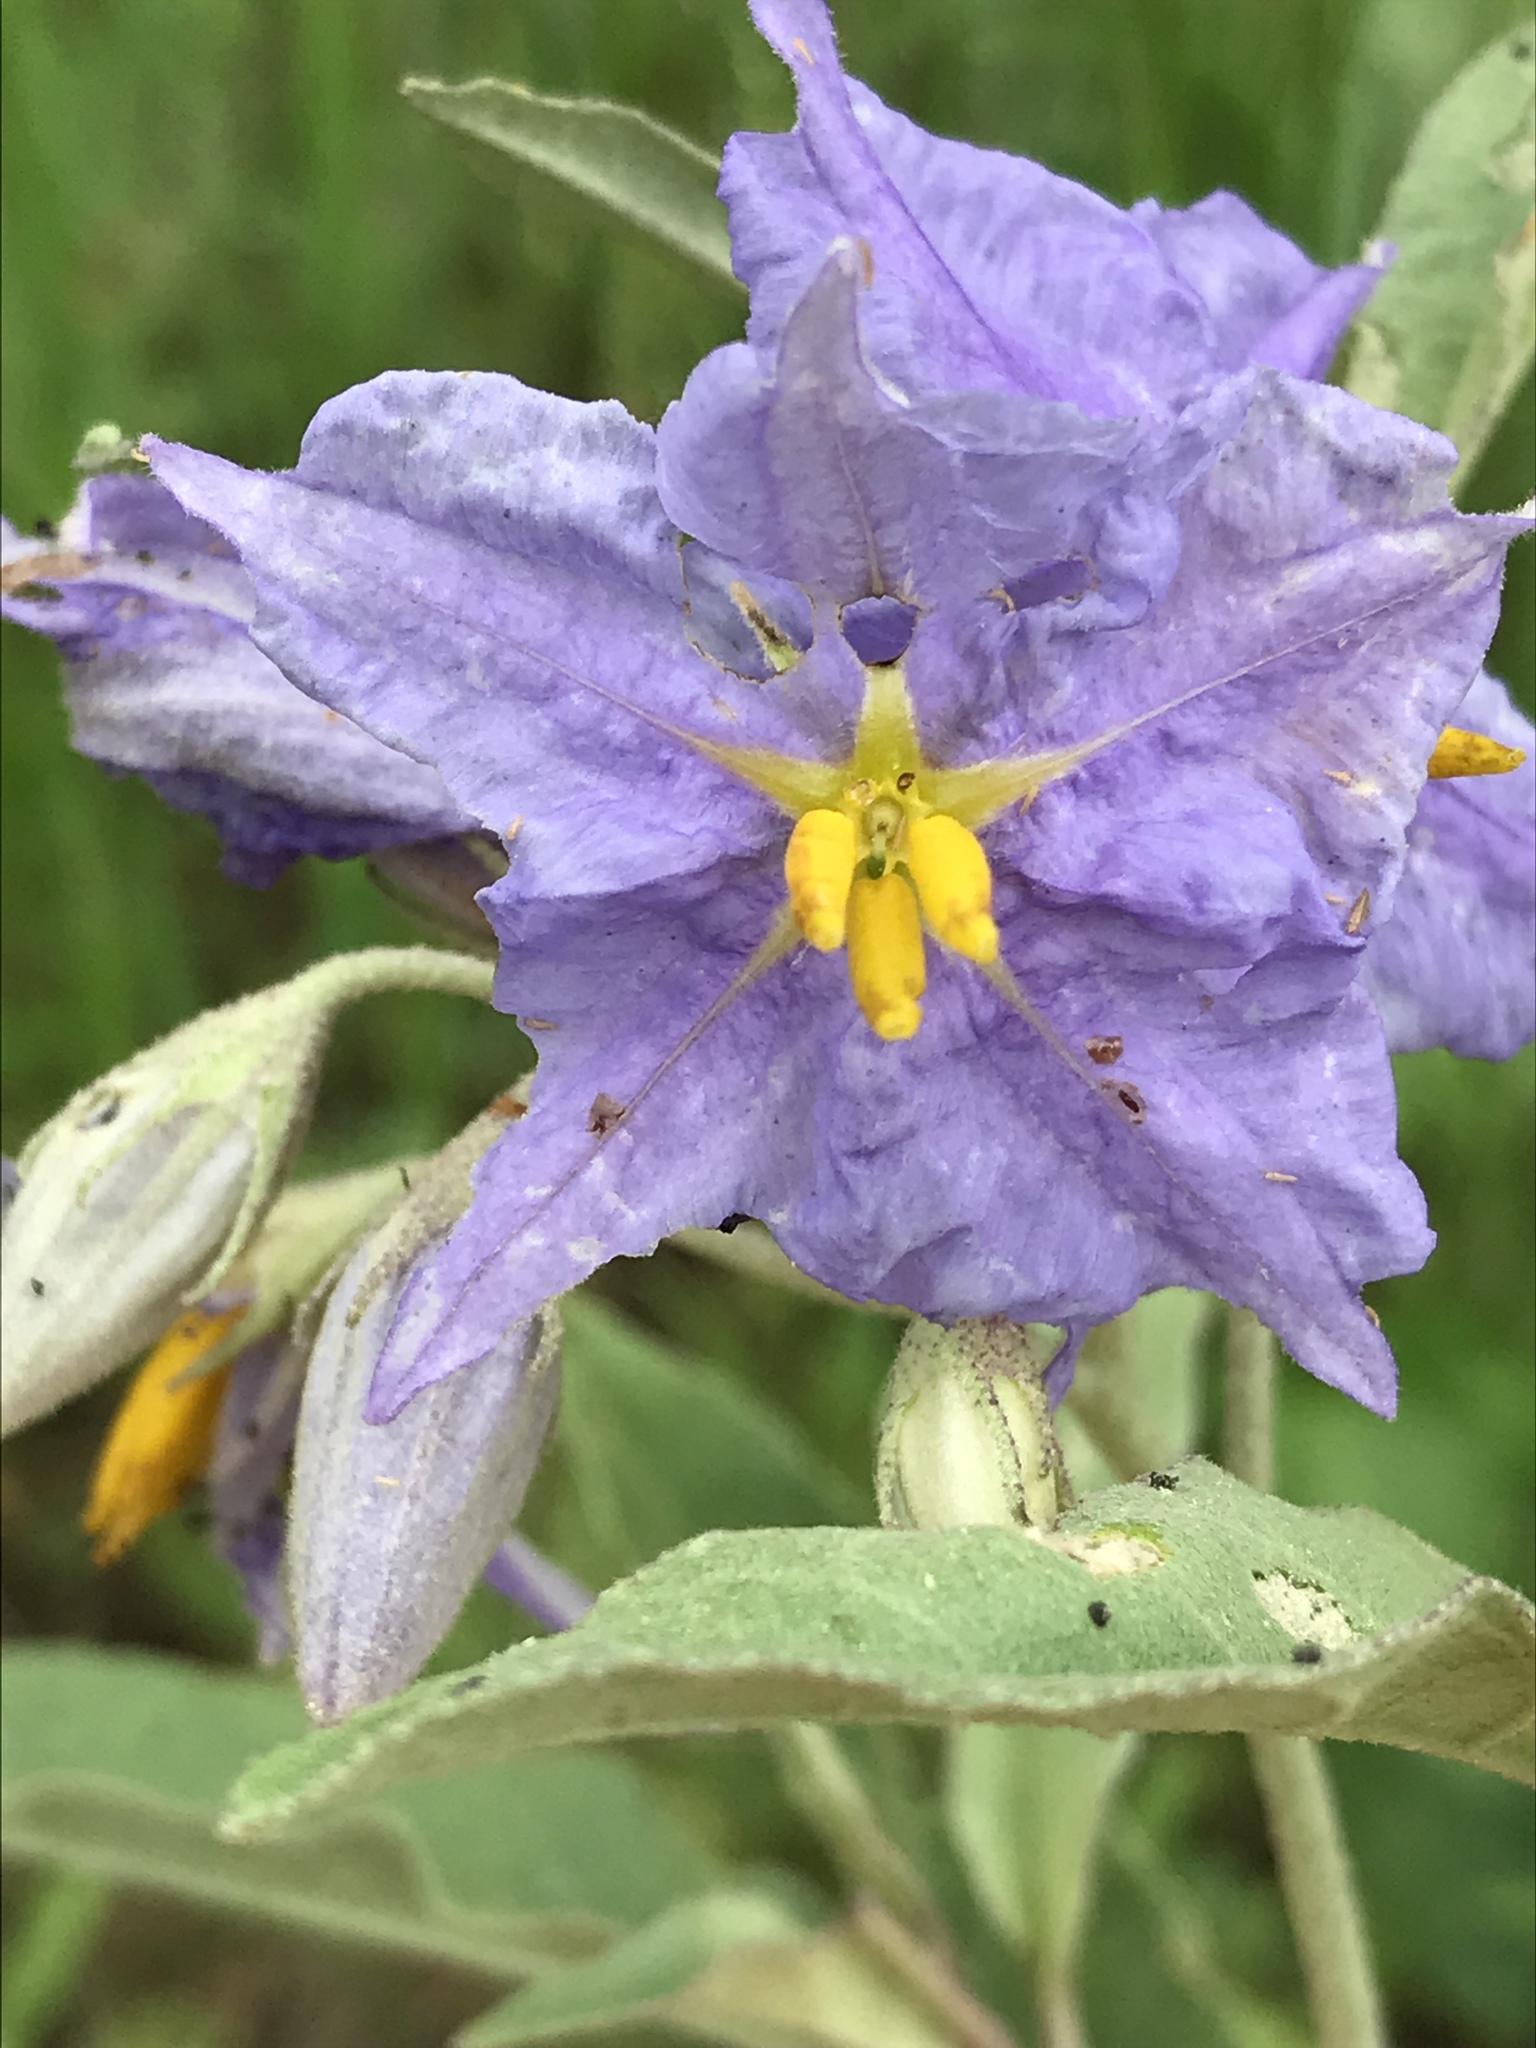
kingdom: Plantae
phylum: Tracheophyta
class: Magnoliopsida
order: Solanales
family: Solanaceae
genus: Solanum
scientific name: Solanum elaeagnifolium
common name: Silverleaf nightshade
